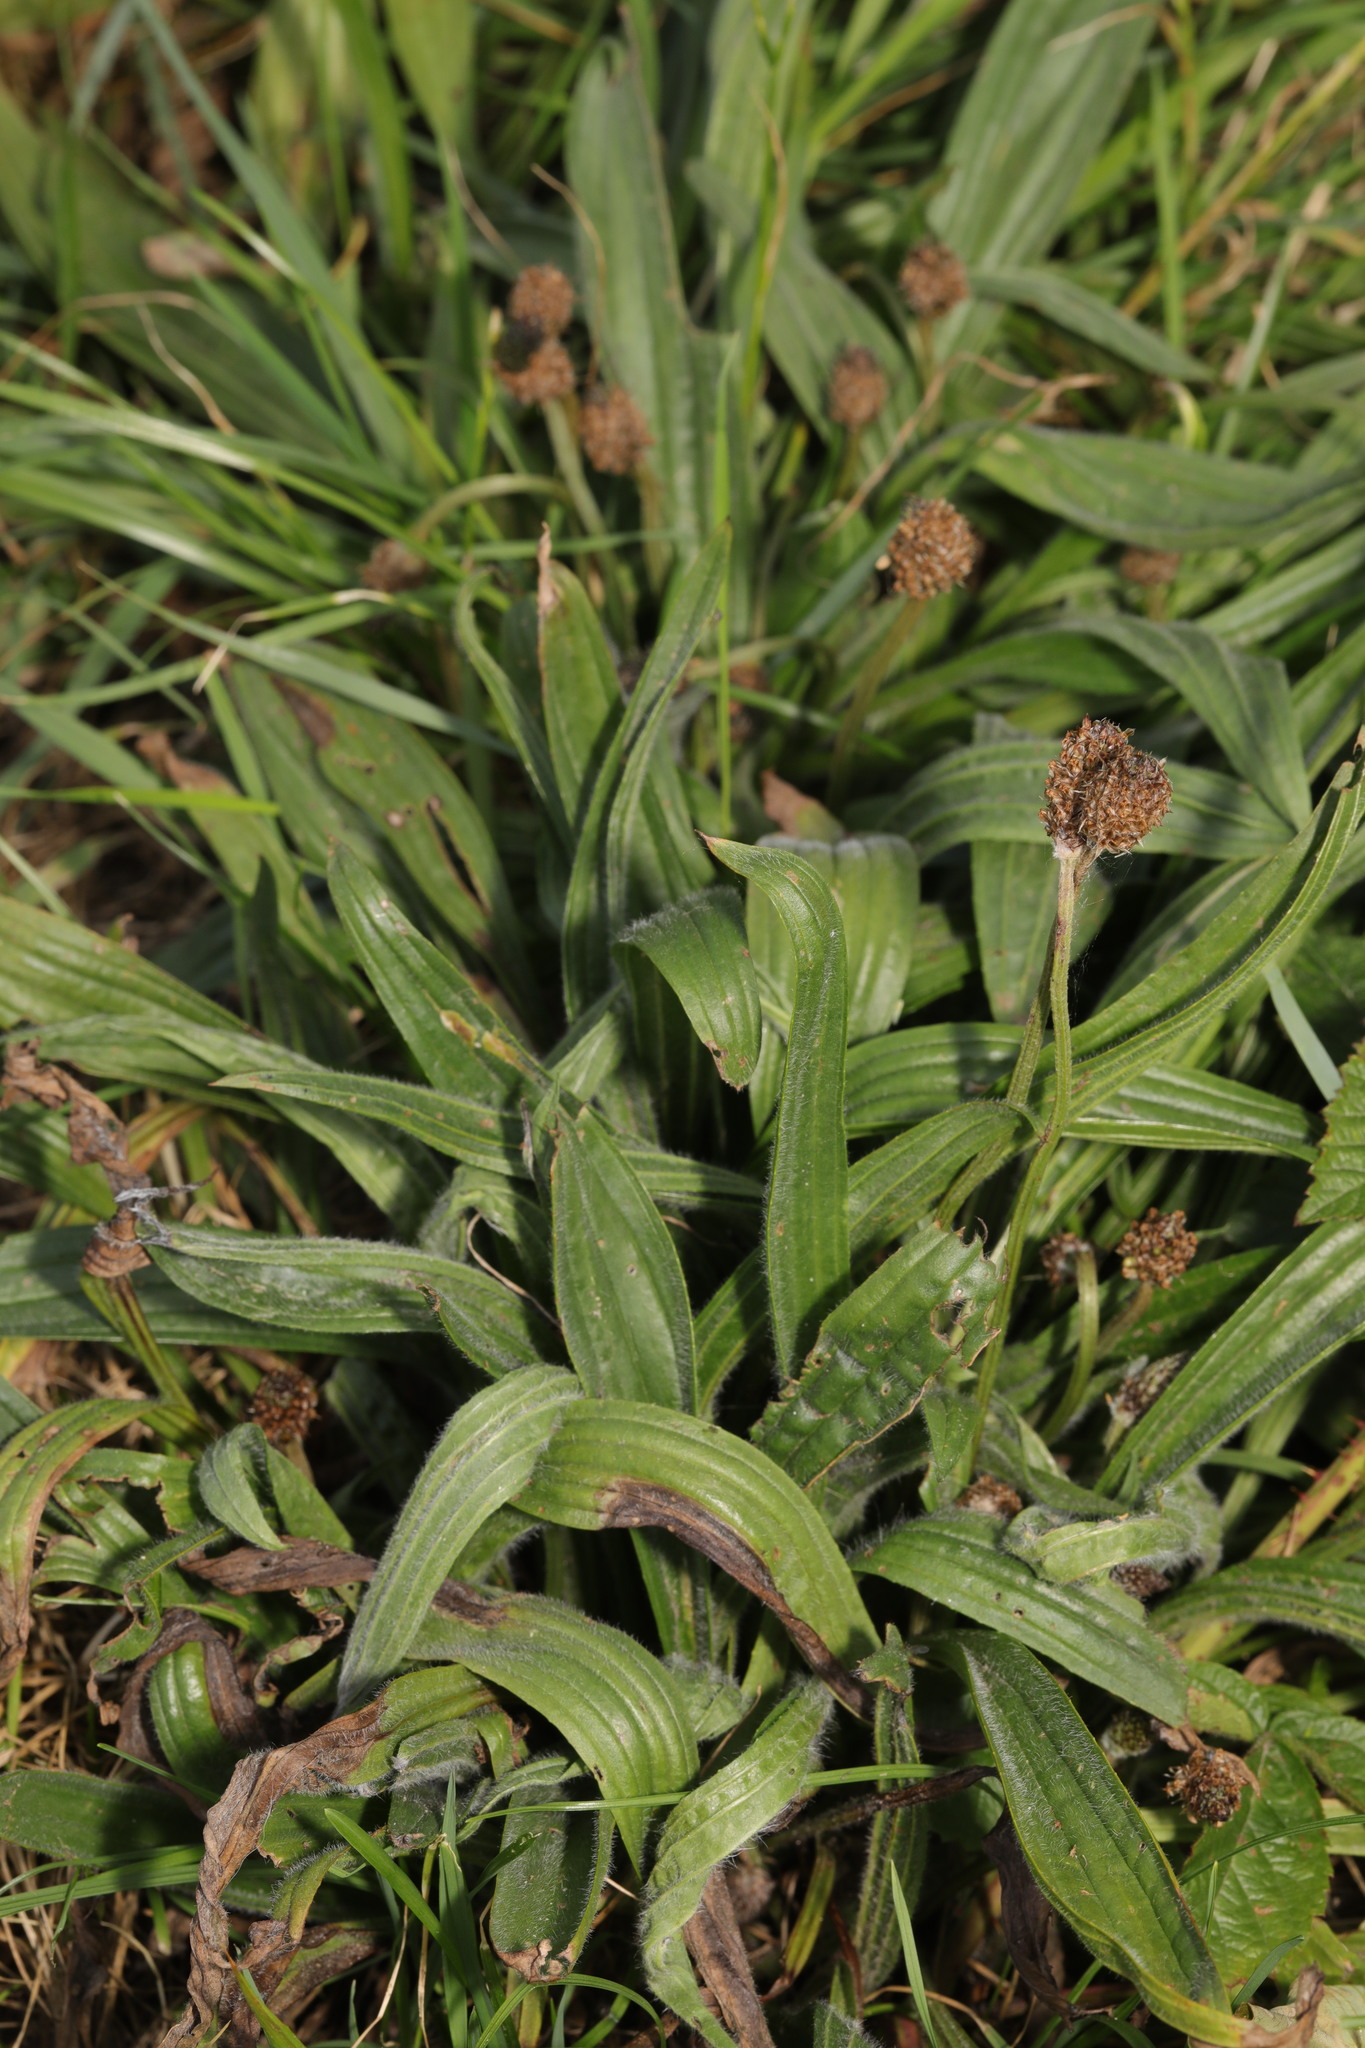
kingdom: Plantae
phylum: Tracheophyta
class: Magnoliopsida
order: Lamiales
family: Plantaginaceae
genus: Plantago
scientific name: Plantago lanceolata
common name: Ribwort plantain
